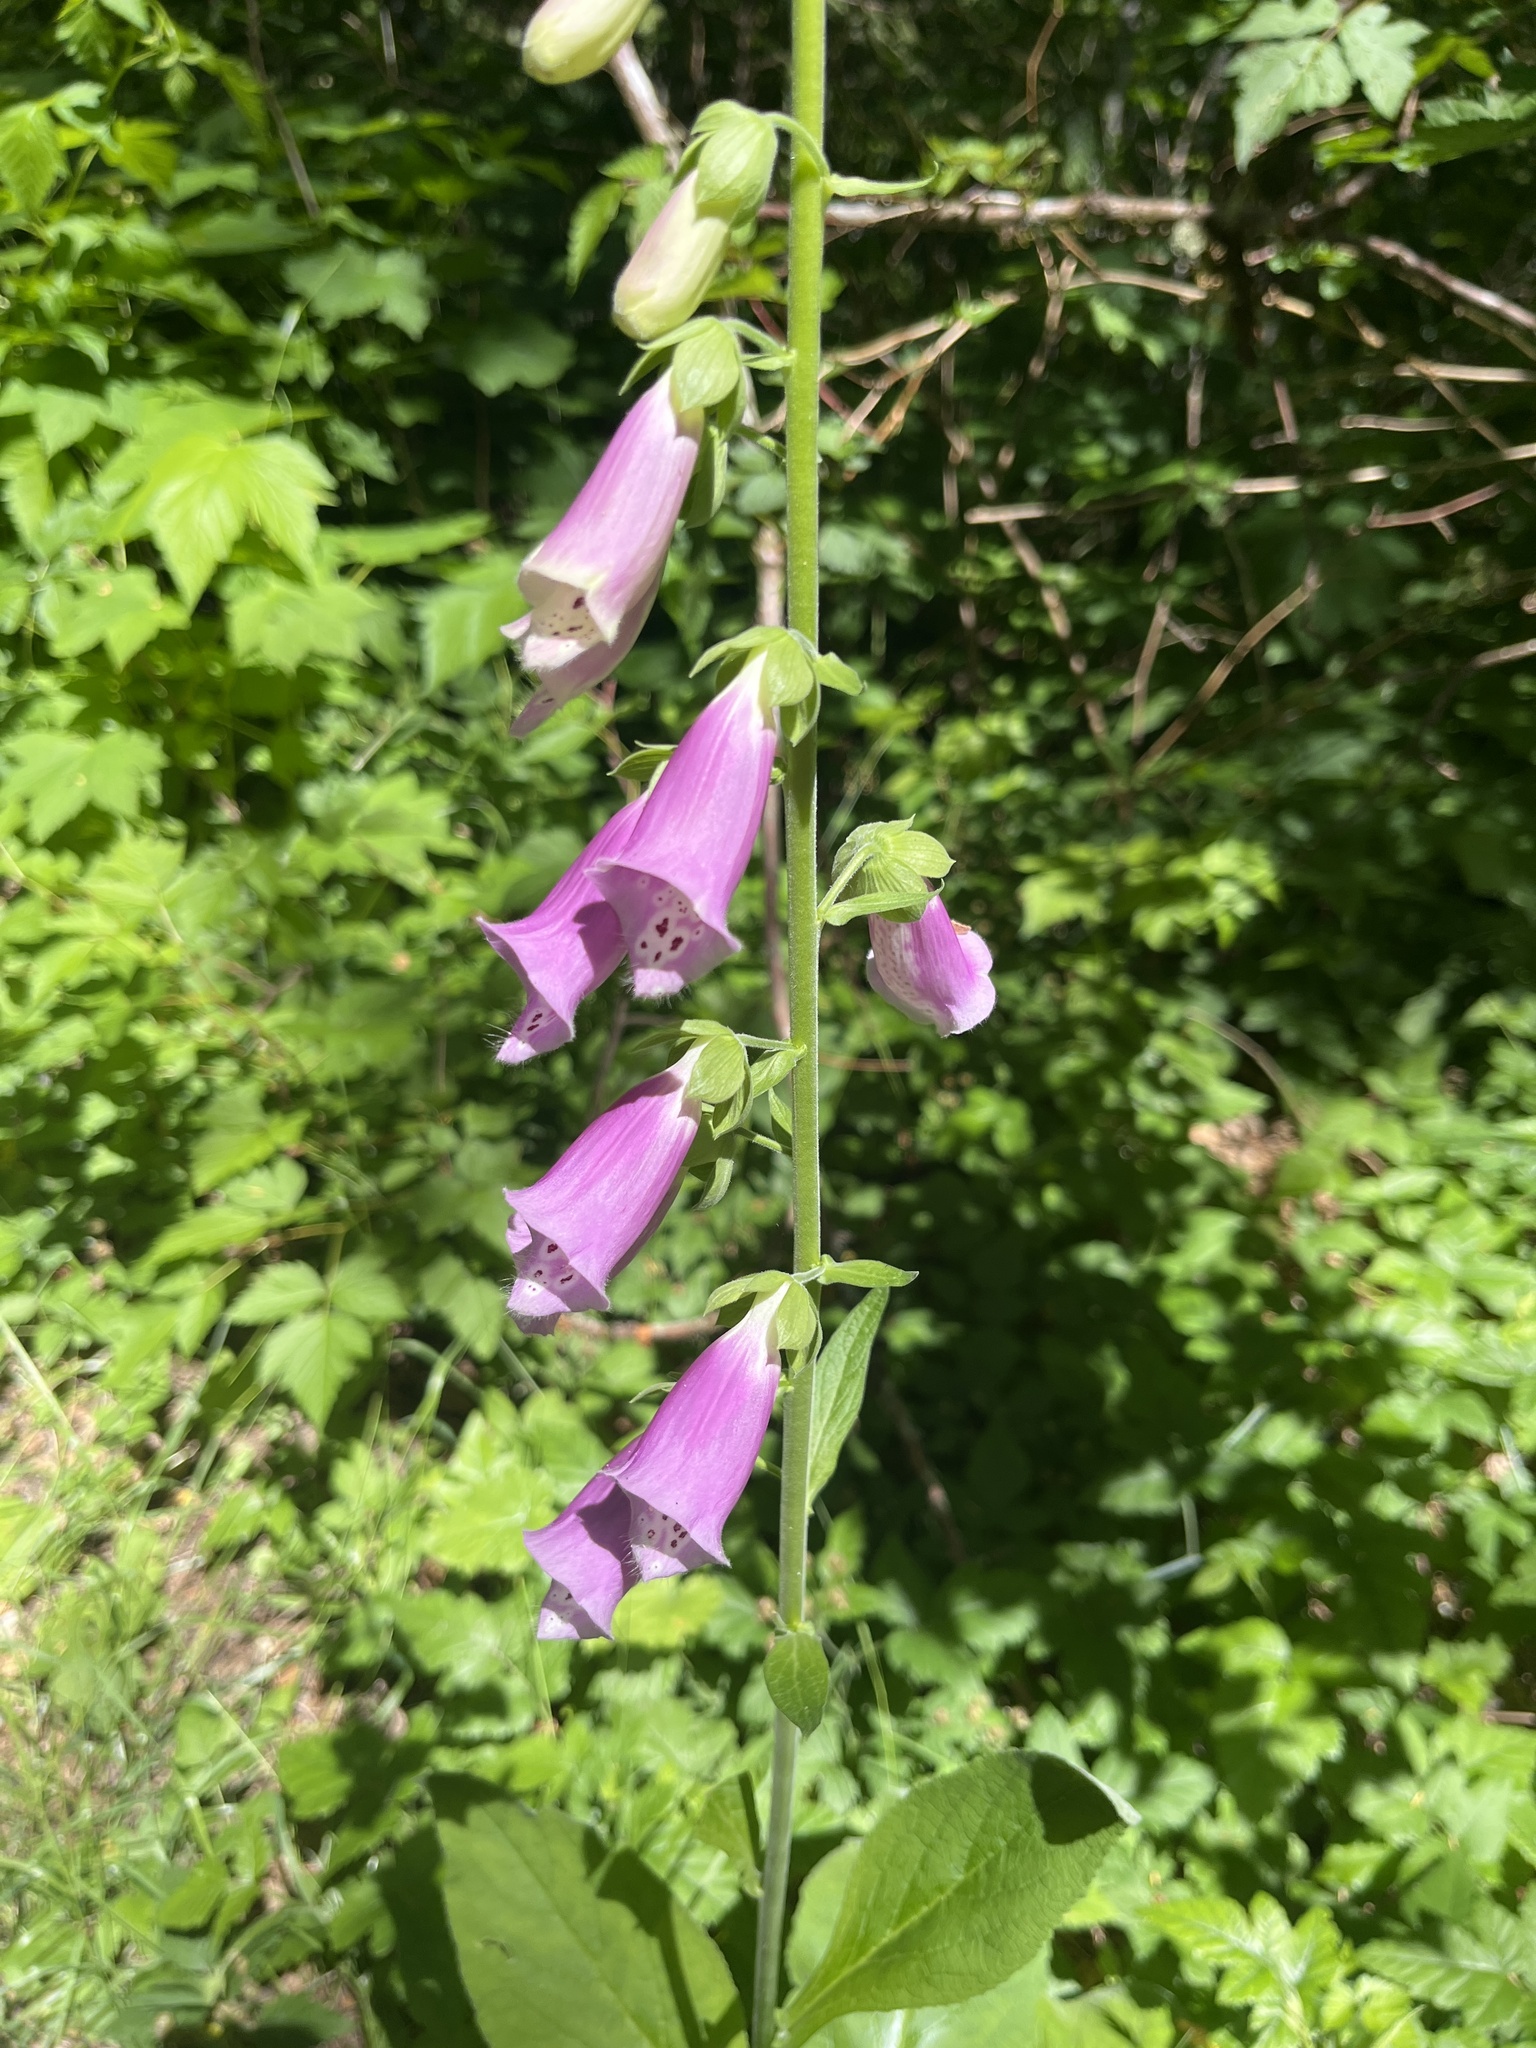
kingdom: Plantae
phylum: Tracheophyta
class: Magnoliopsida
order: Lamiales
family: Plantaginaceae
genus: Digitalis
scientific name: Digitalis purpurea
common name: Foxglove
